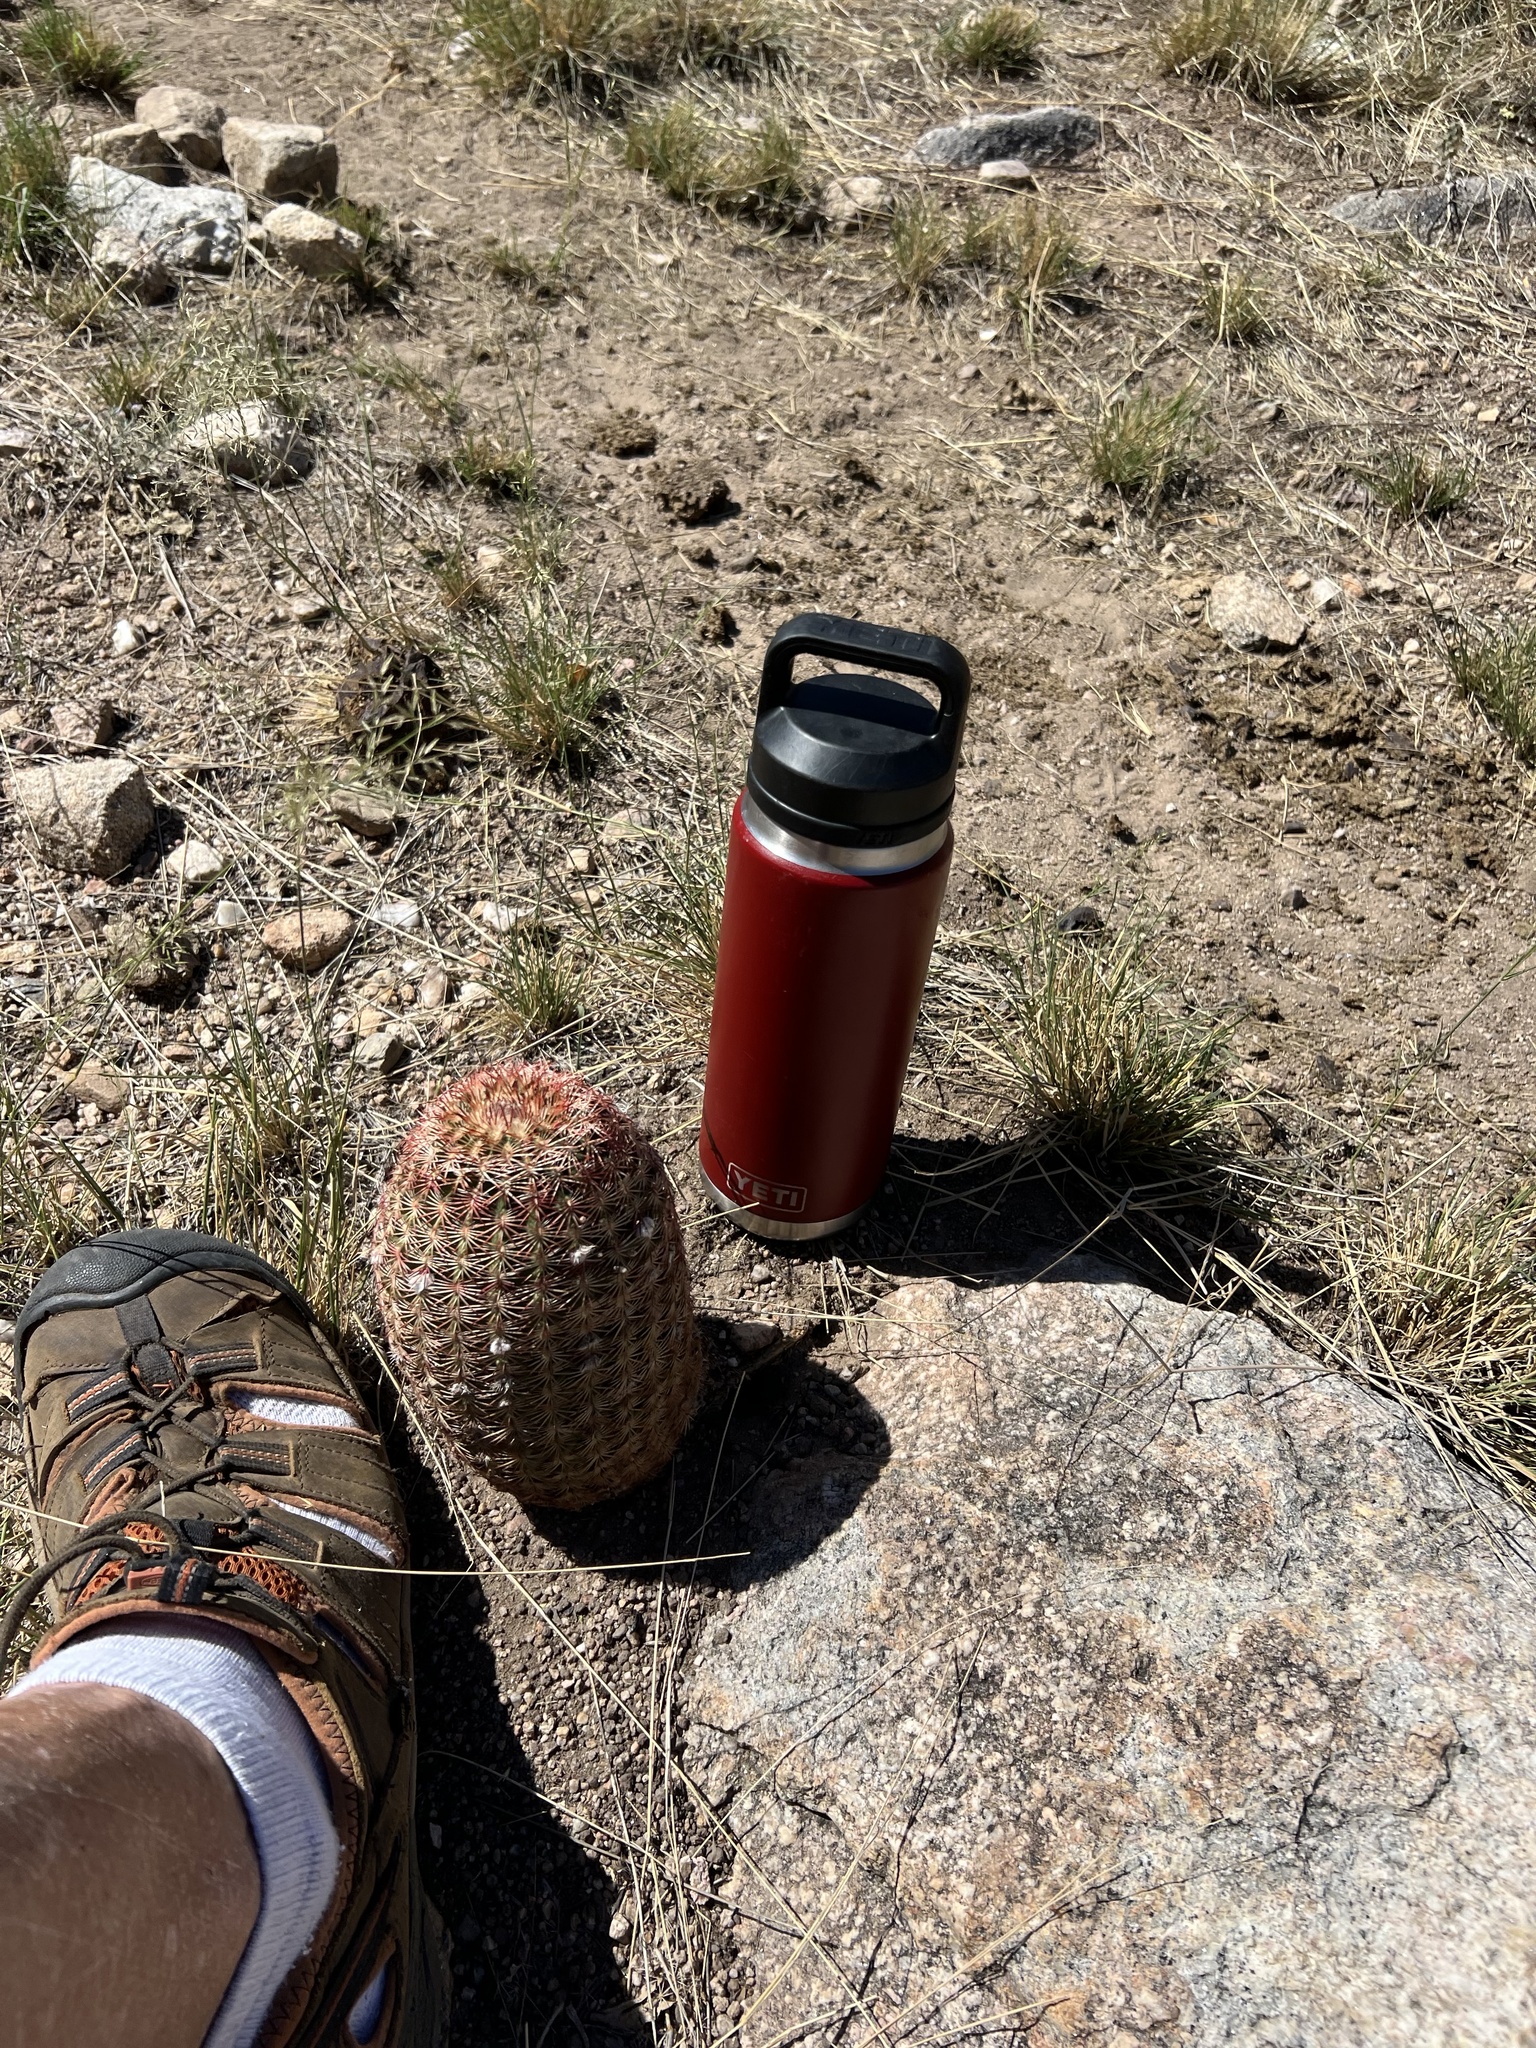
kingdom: Plantae
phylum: Tracheophyta
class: Magnoliopsida
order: Caryophyllales
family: Cactaceae
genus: Echinocereus
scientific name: Echinocereus rigidissimus
